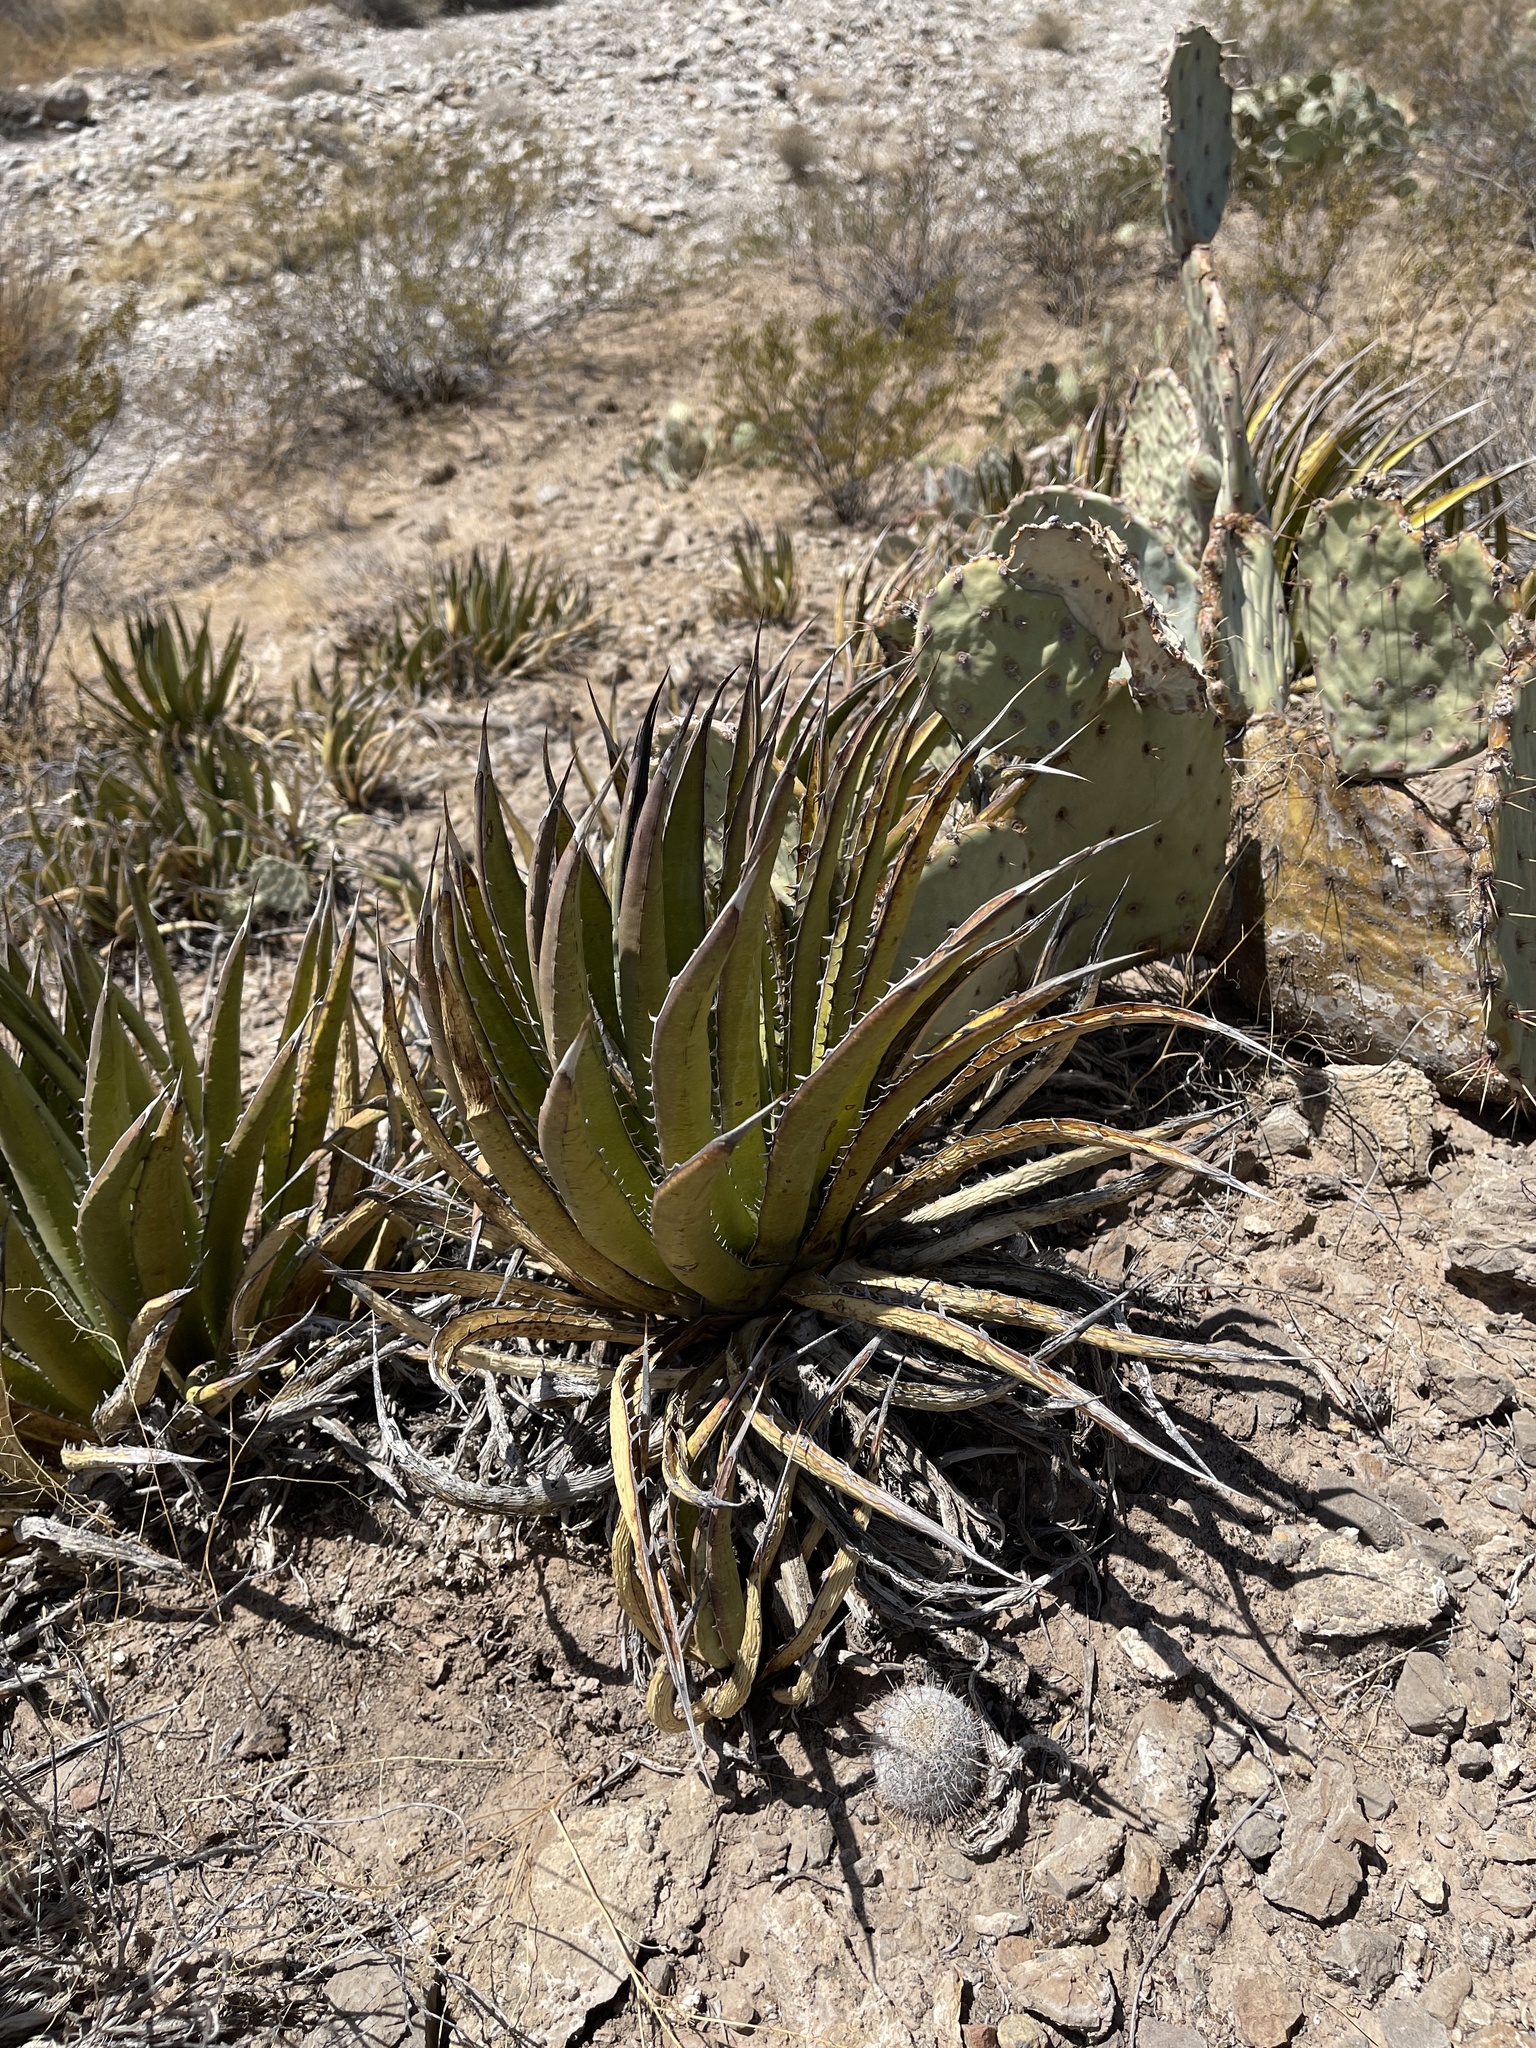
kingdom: Plantae
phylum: Tracheophyta
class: Liliopsida
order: Asparagales
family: Asparagaceae
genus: Agave
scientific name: Agave lechuguilla
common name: Lecheguilla agave
